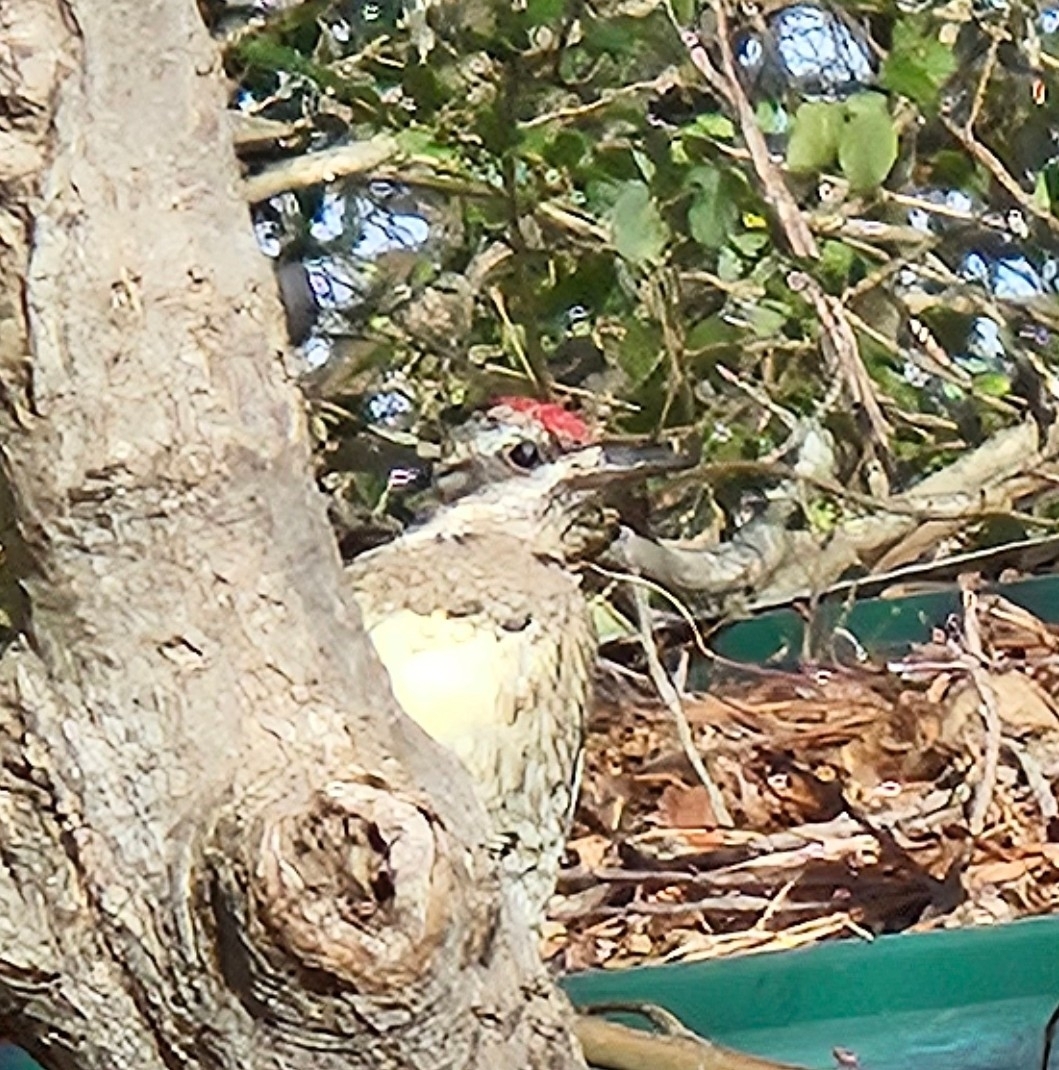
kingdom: Animalia
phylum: Chordata
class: Aves
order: Piciformes
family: Picidae
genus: Sphyrapicus
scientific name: Sphyrapicus varius
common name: Yellow-bellied sapsucker
